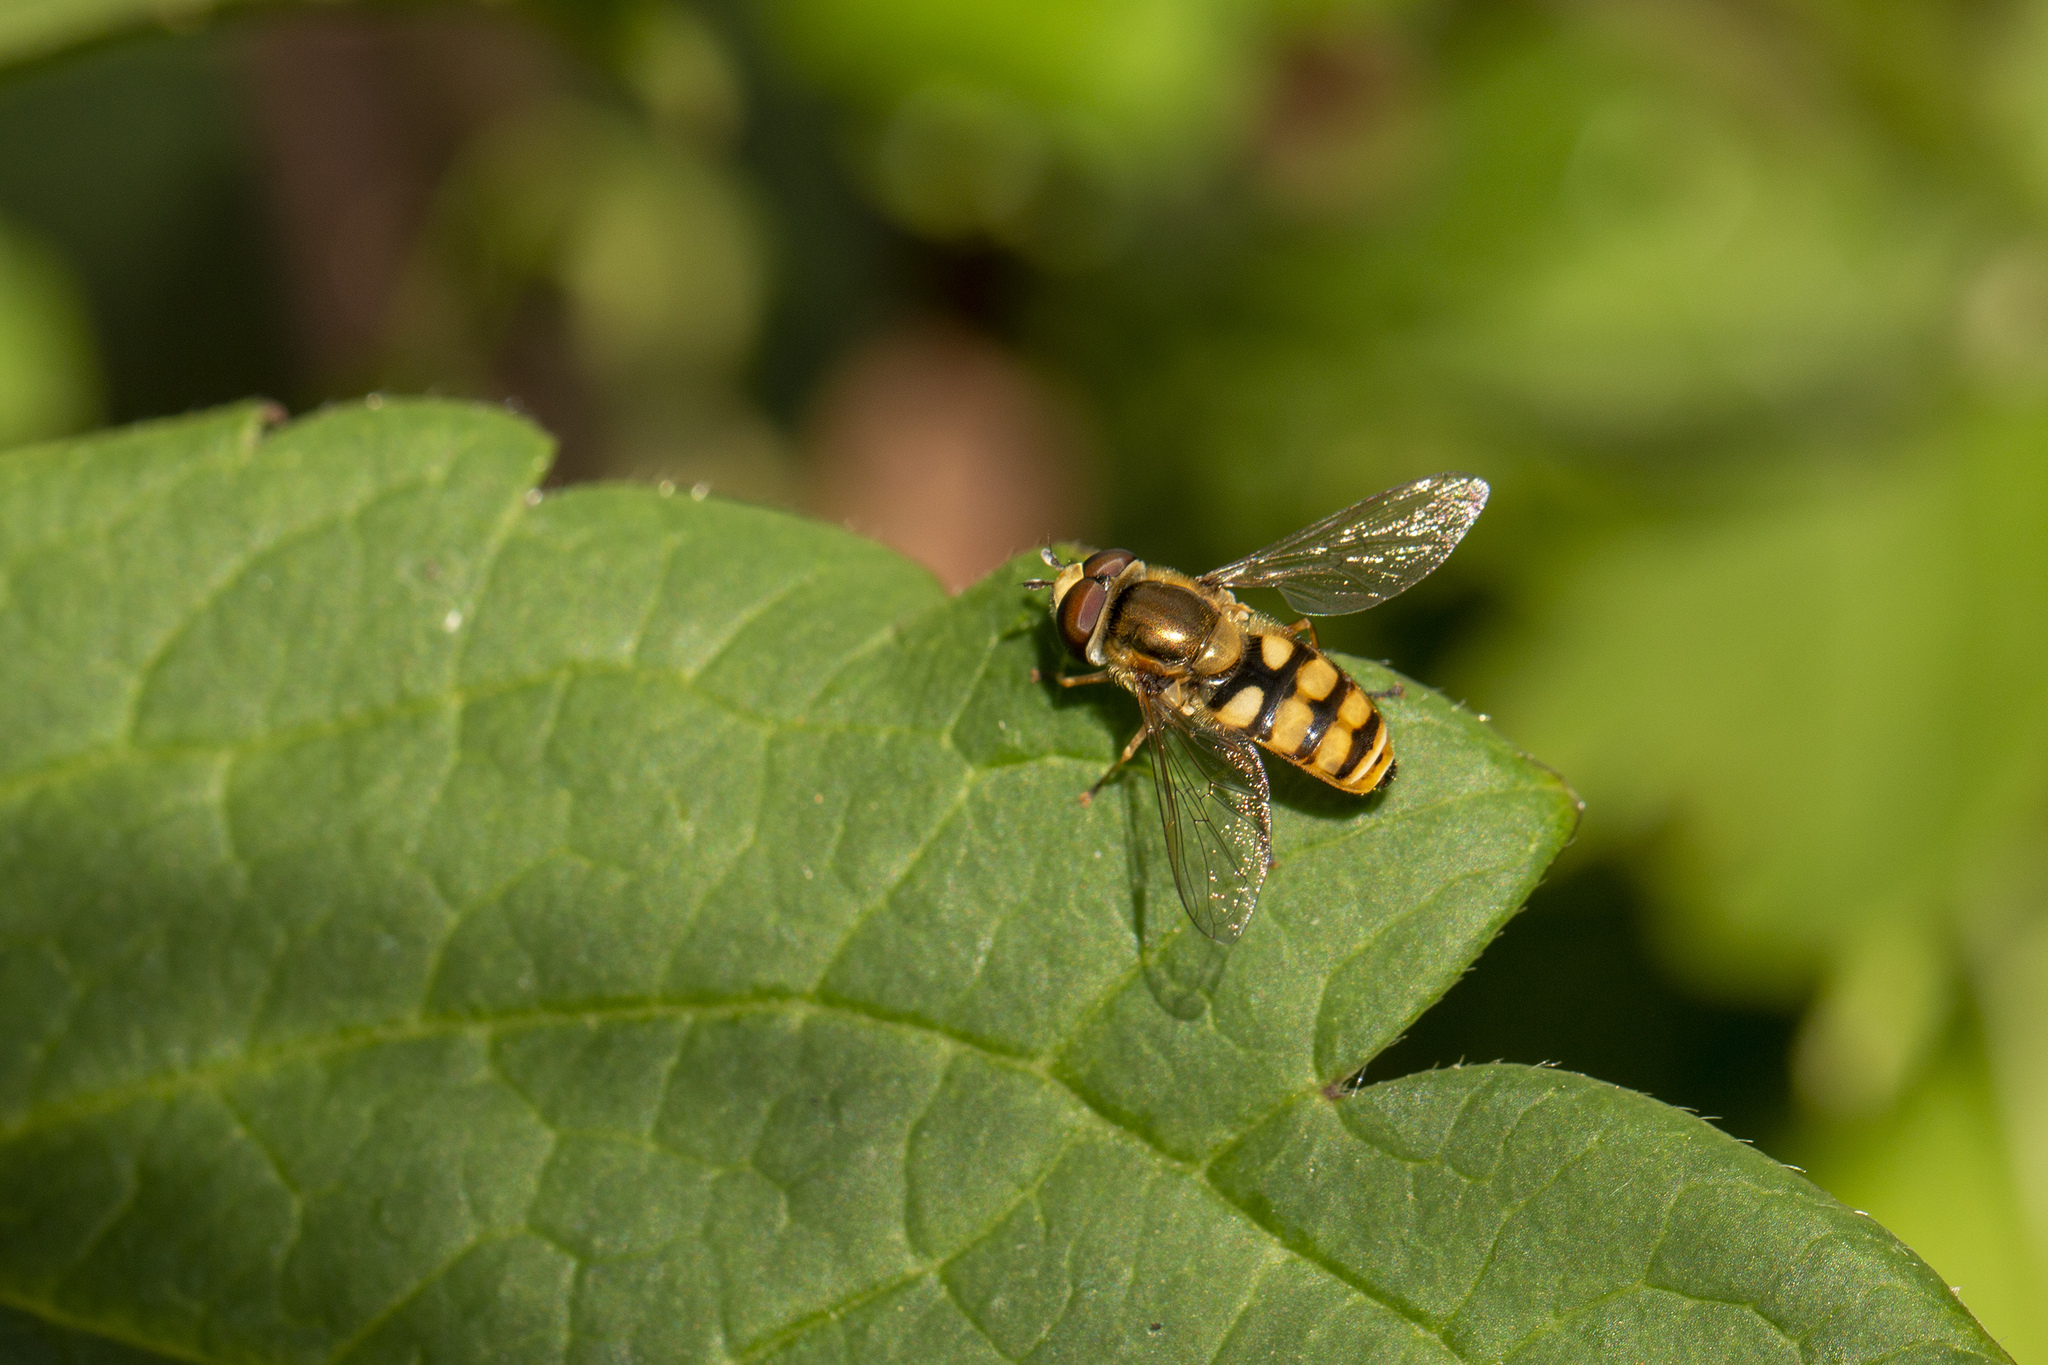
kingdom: Animalia
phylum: Arthropoda
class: Insecta
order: Diptera
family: Syrphidae
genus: Eupeodes
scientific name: Eupeodes corollae
